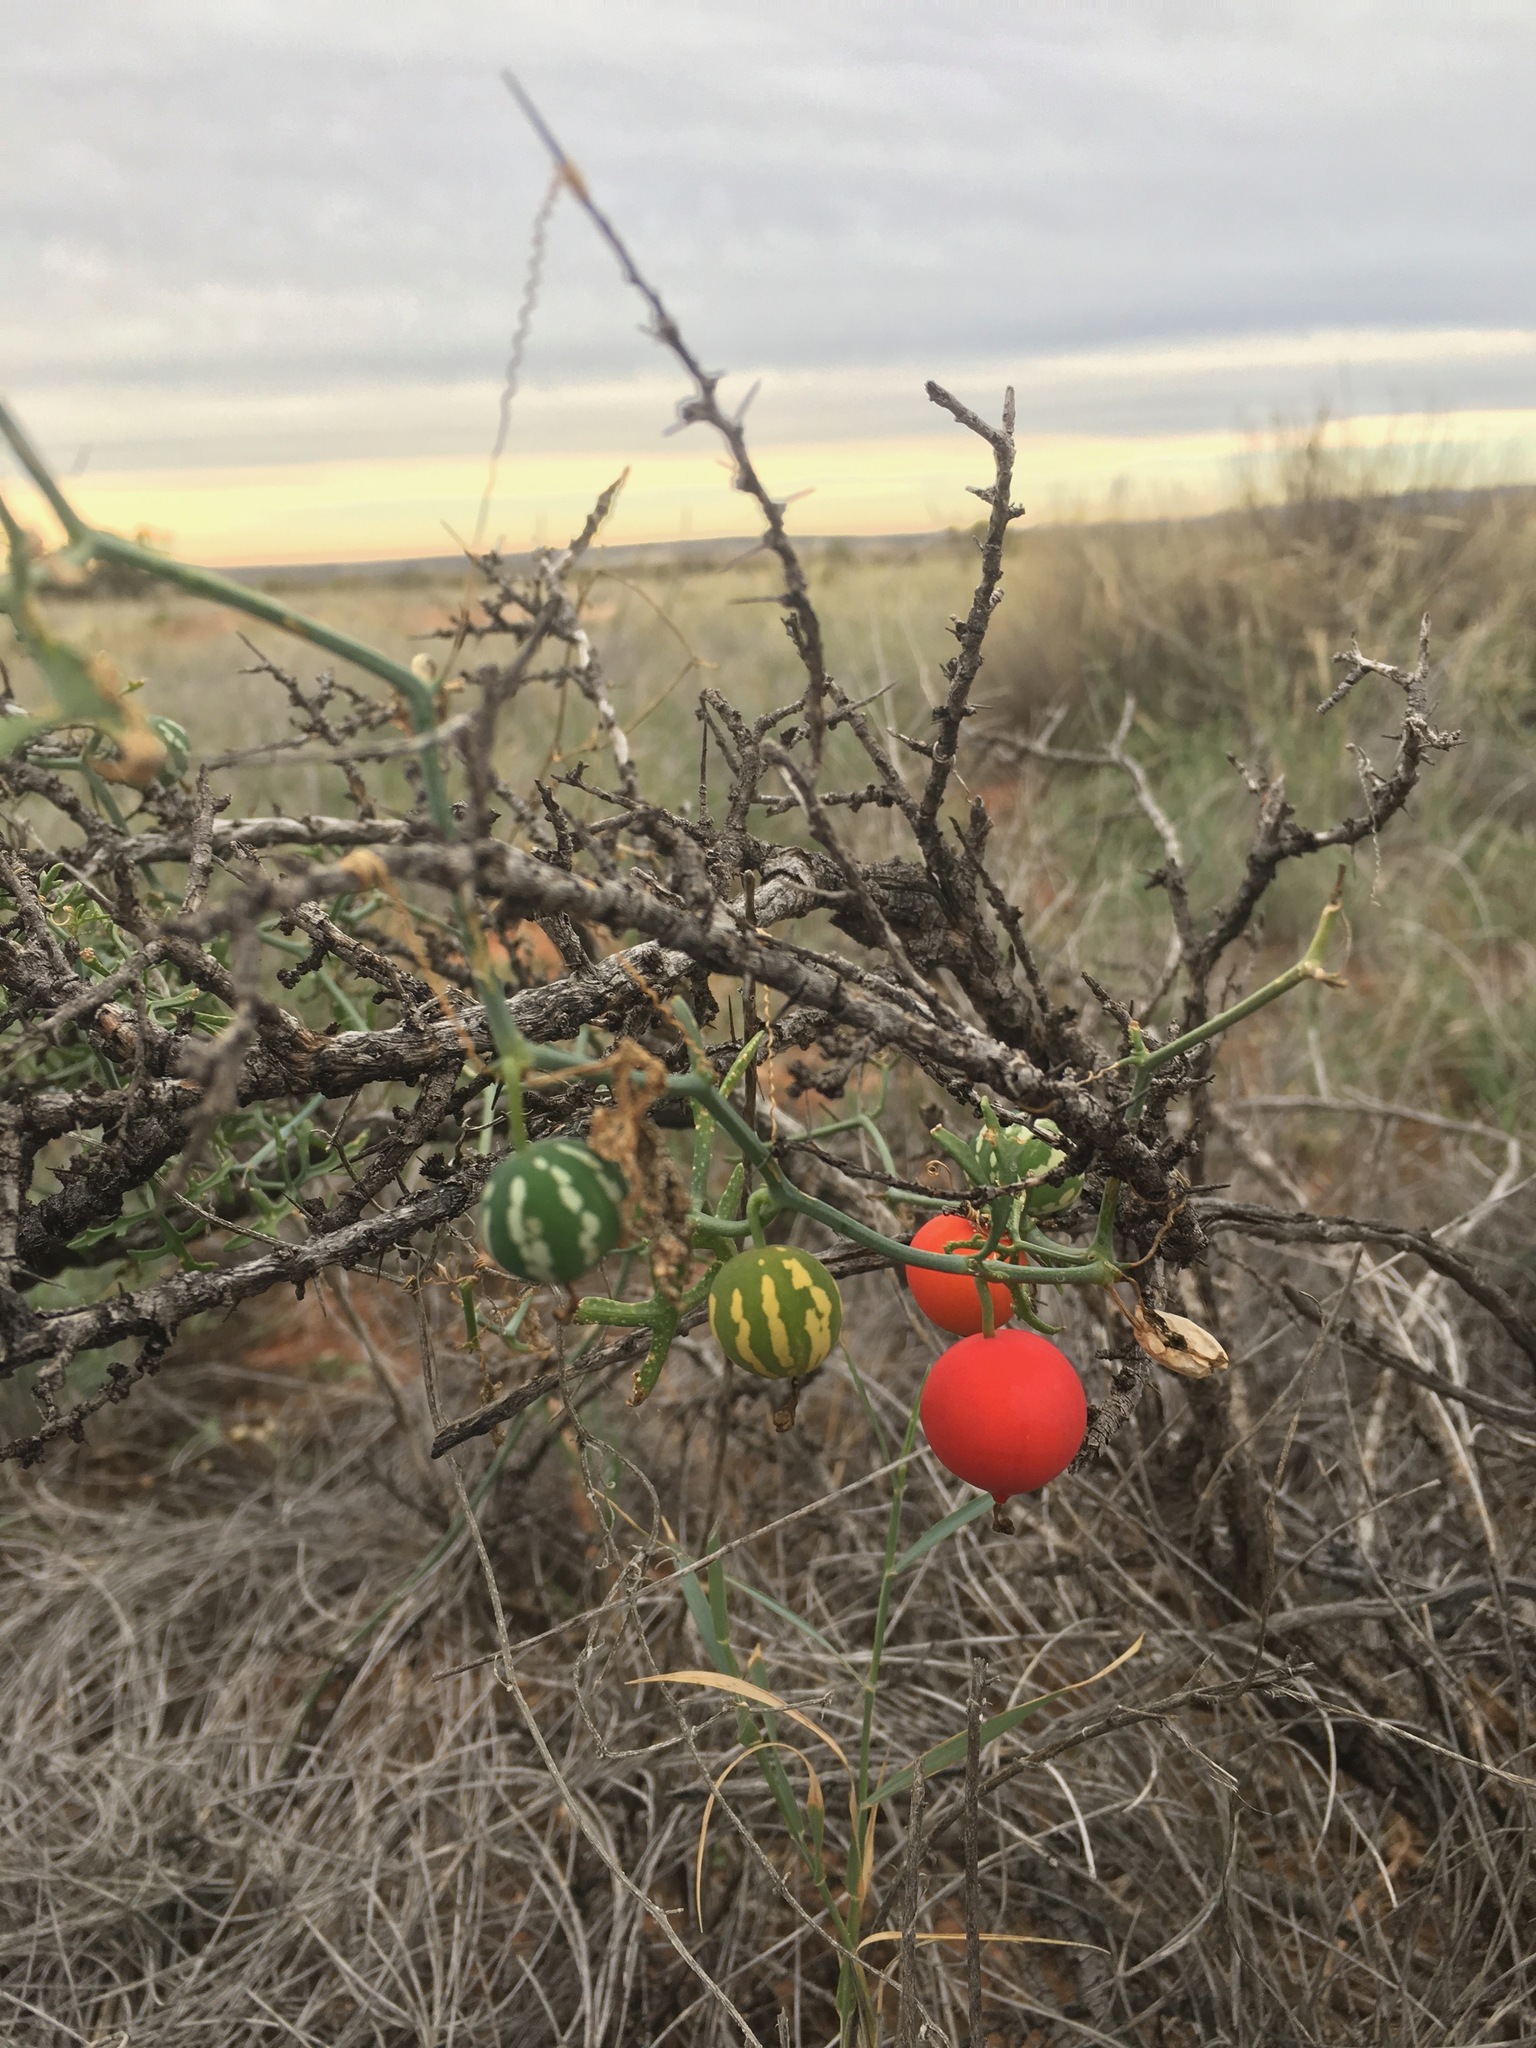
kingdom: Plantae
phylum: Tracheophyta
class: Magnoliopsida
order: Cucurbitales
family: Cucurbitaceae
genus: Ibervillea
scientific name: Ibervillea tenuisecta
